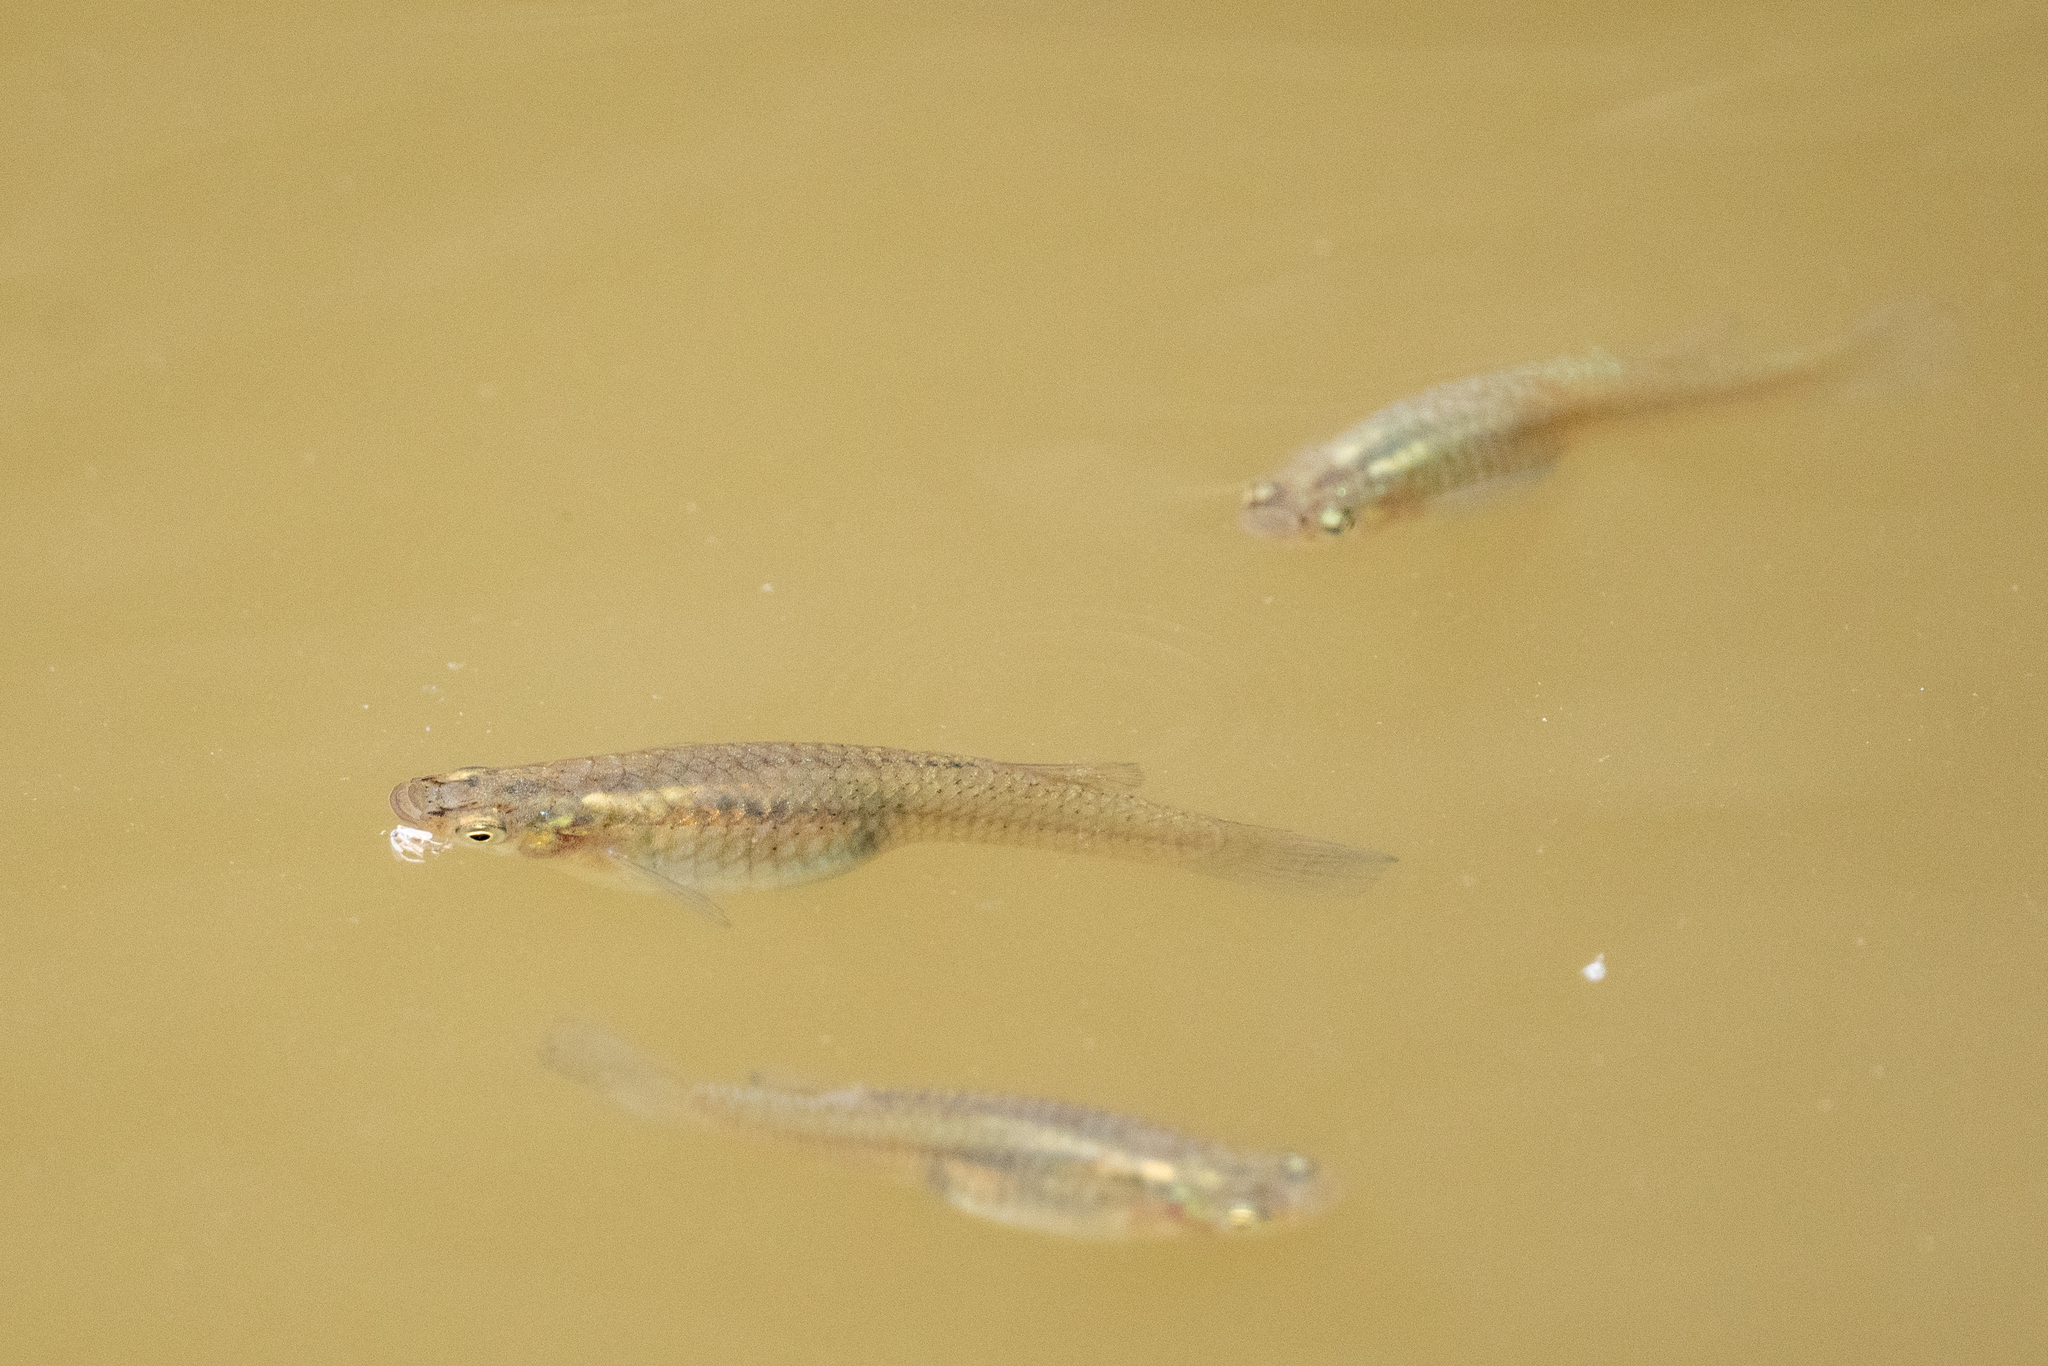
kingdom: Animalia
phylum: Chordata
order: Cyprinodontiformes
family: Poeciliidae
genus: Gambusia
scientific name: Gambusia affinis
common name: Mosquitofish
